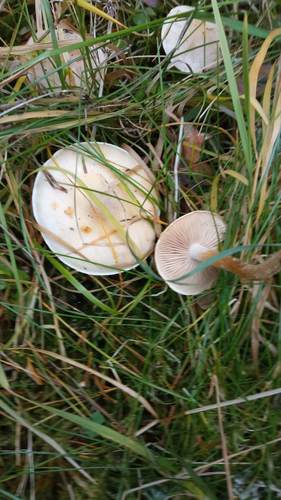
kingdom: Fungi
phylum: Basidiomycota
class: Agaricomycetes
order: Agaricales
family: Hymenogastraceae
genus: Hebeloma
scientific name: Hebeloma
